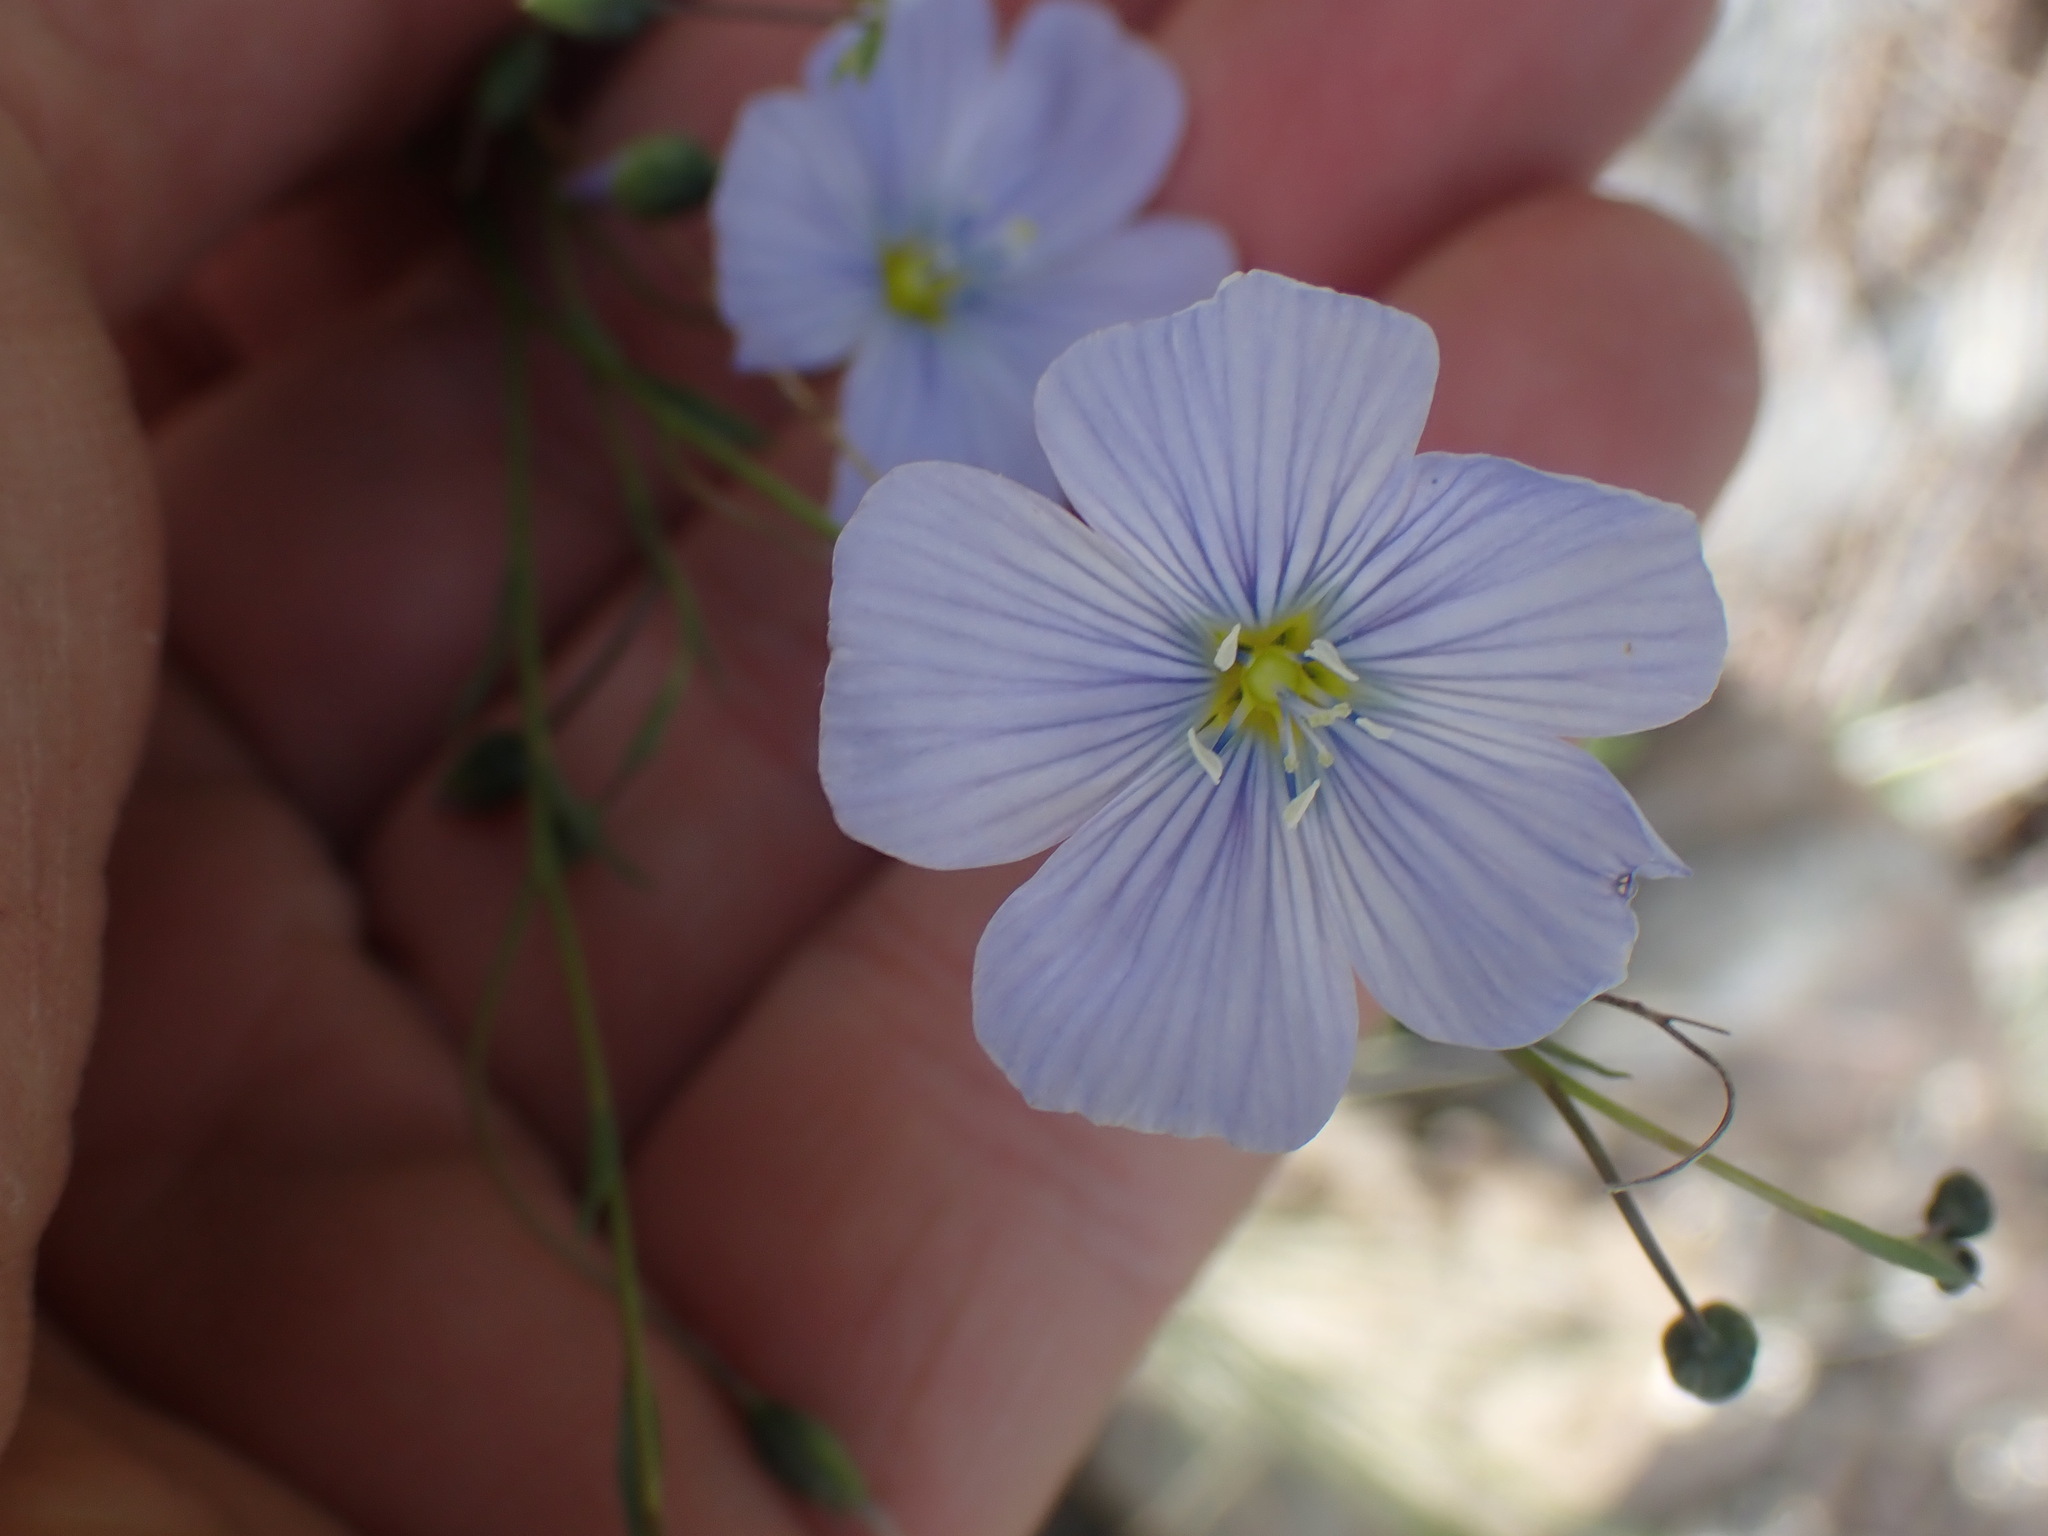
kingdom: Plantae
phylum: Tracheophyta
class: Magnoliopsida
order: Malpighiales
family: Linaceae
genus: Linum
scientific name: Linum lewisii
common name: Prairie flax
